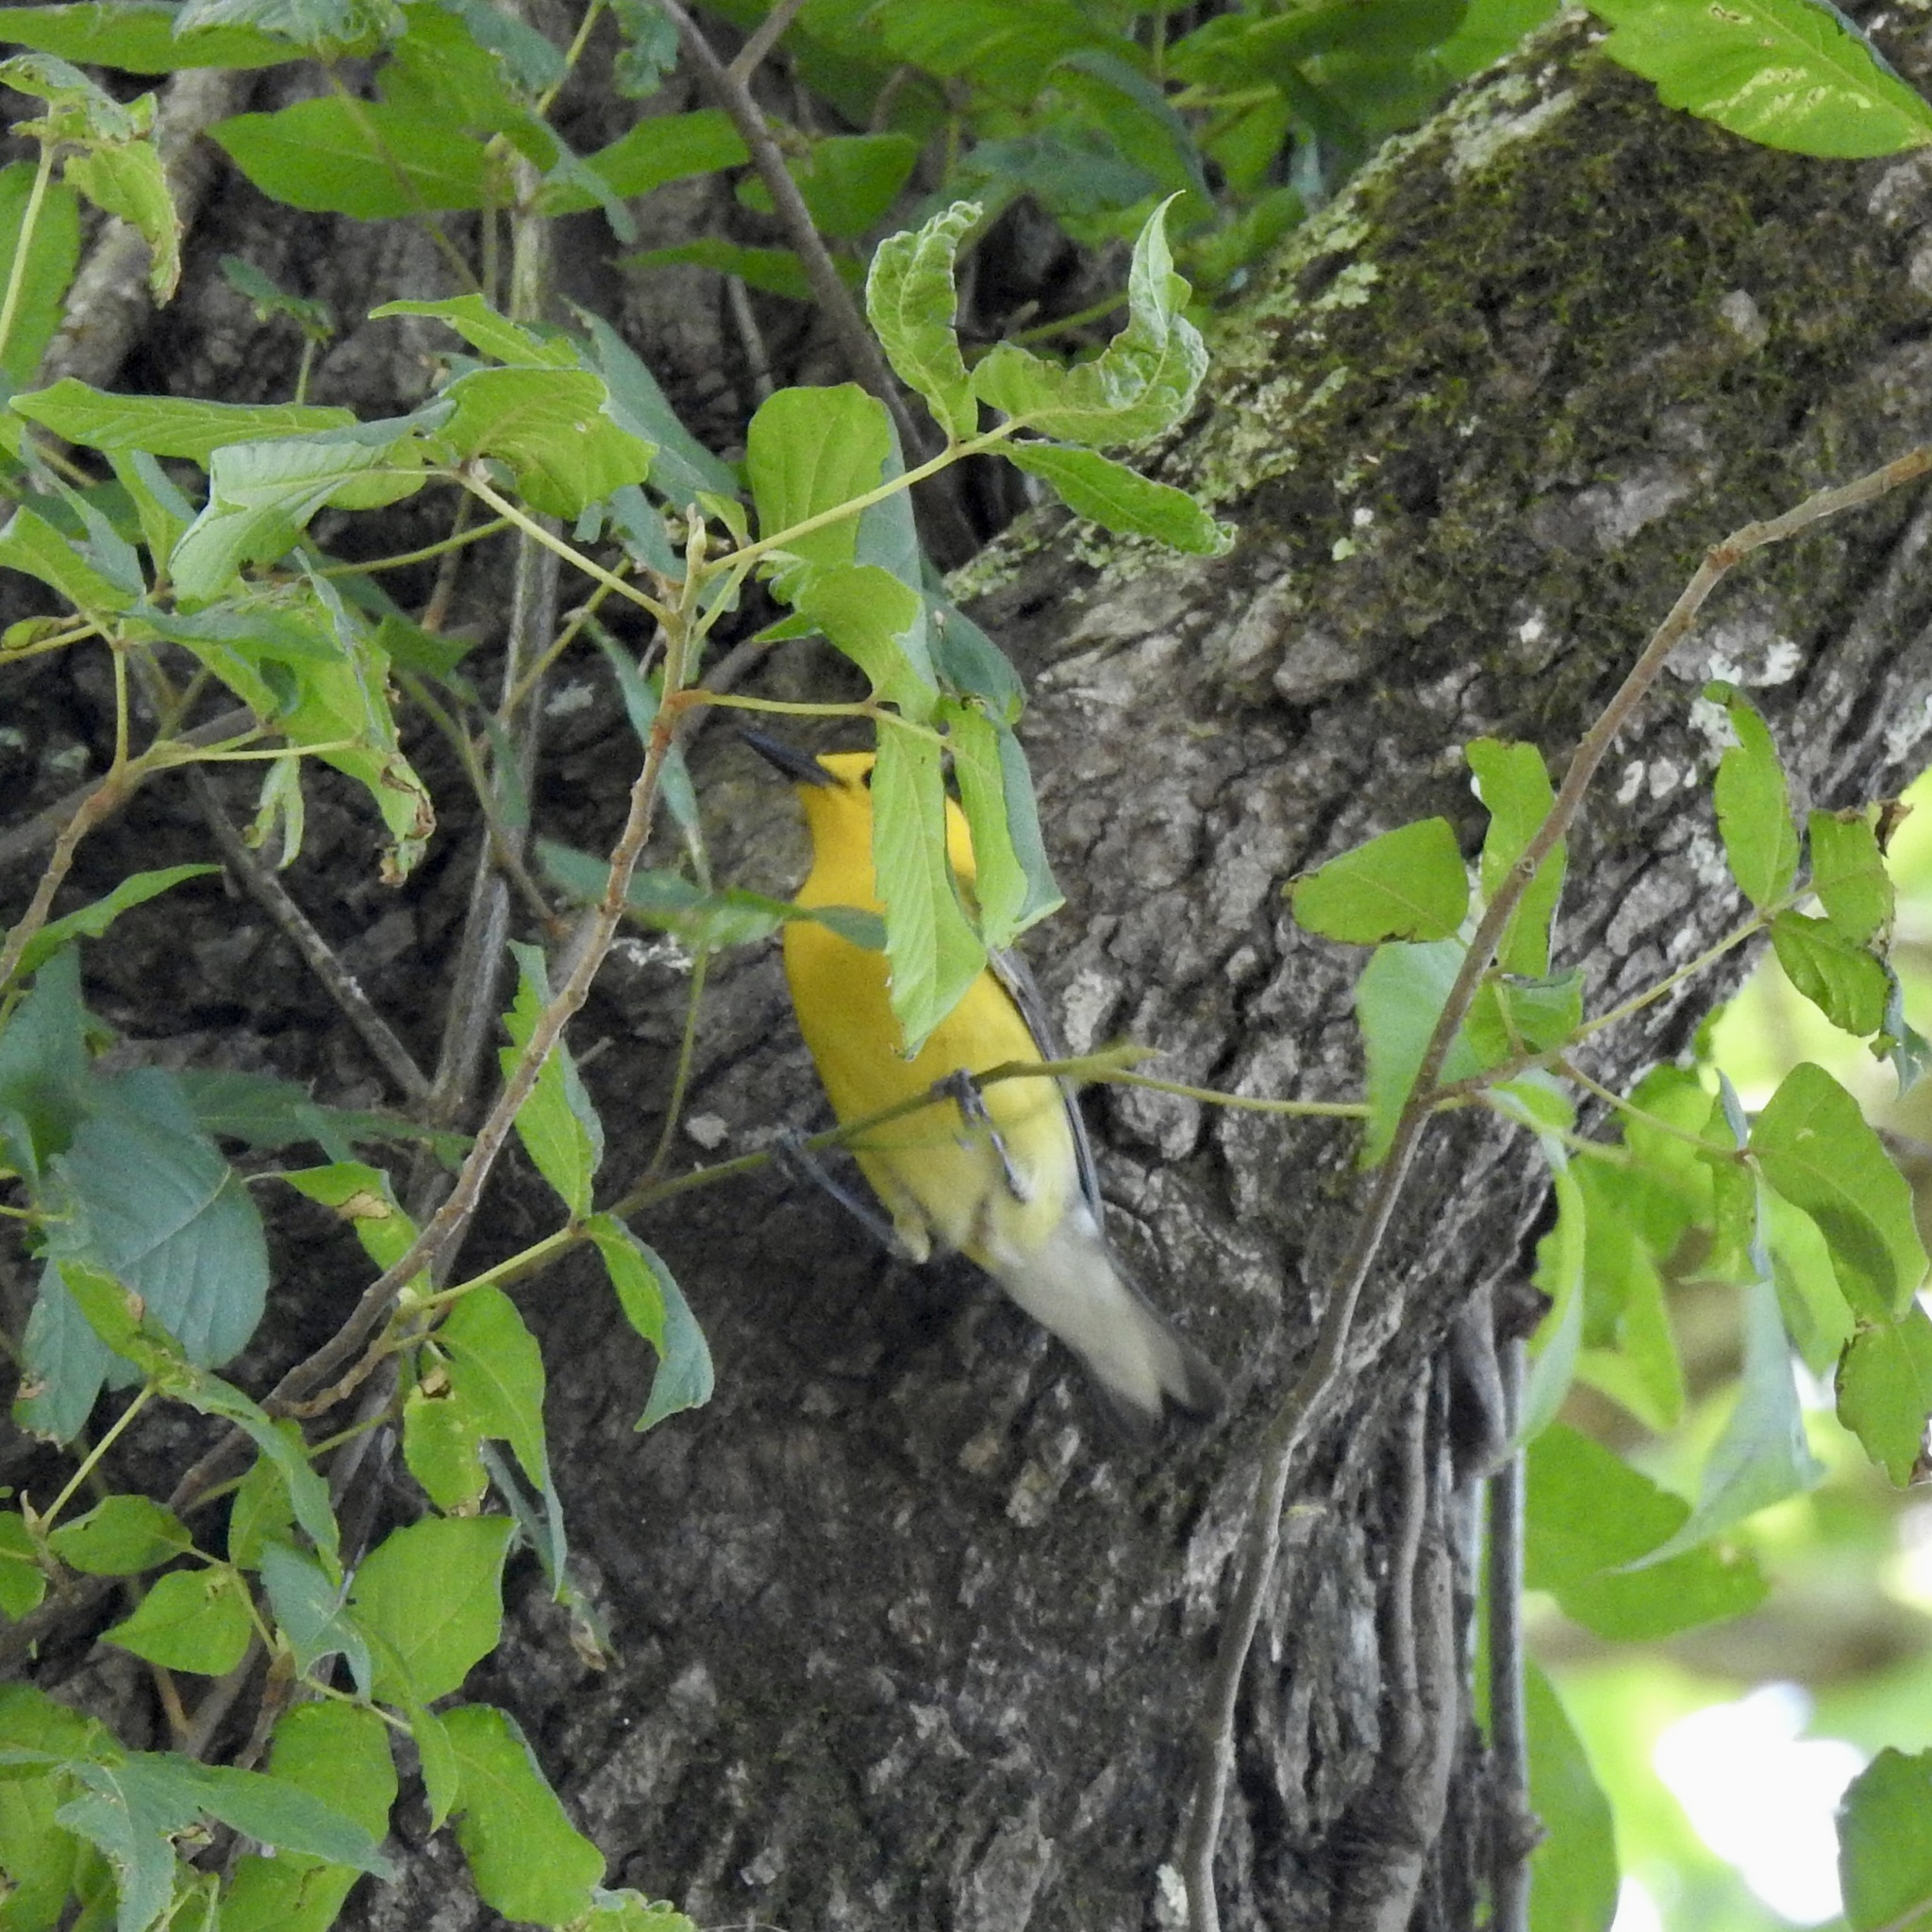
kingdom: Animalia
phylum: Chordata
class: Aves
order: Passeriformes
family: Parulidae
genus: Protonotaria
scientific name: Protonotaria citrea
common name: Prothonotary warbler
